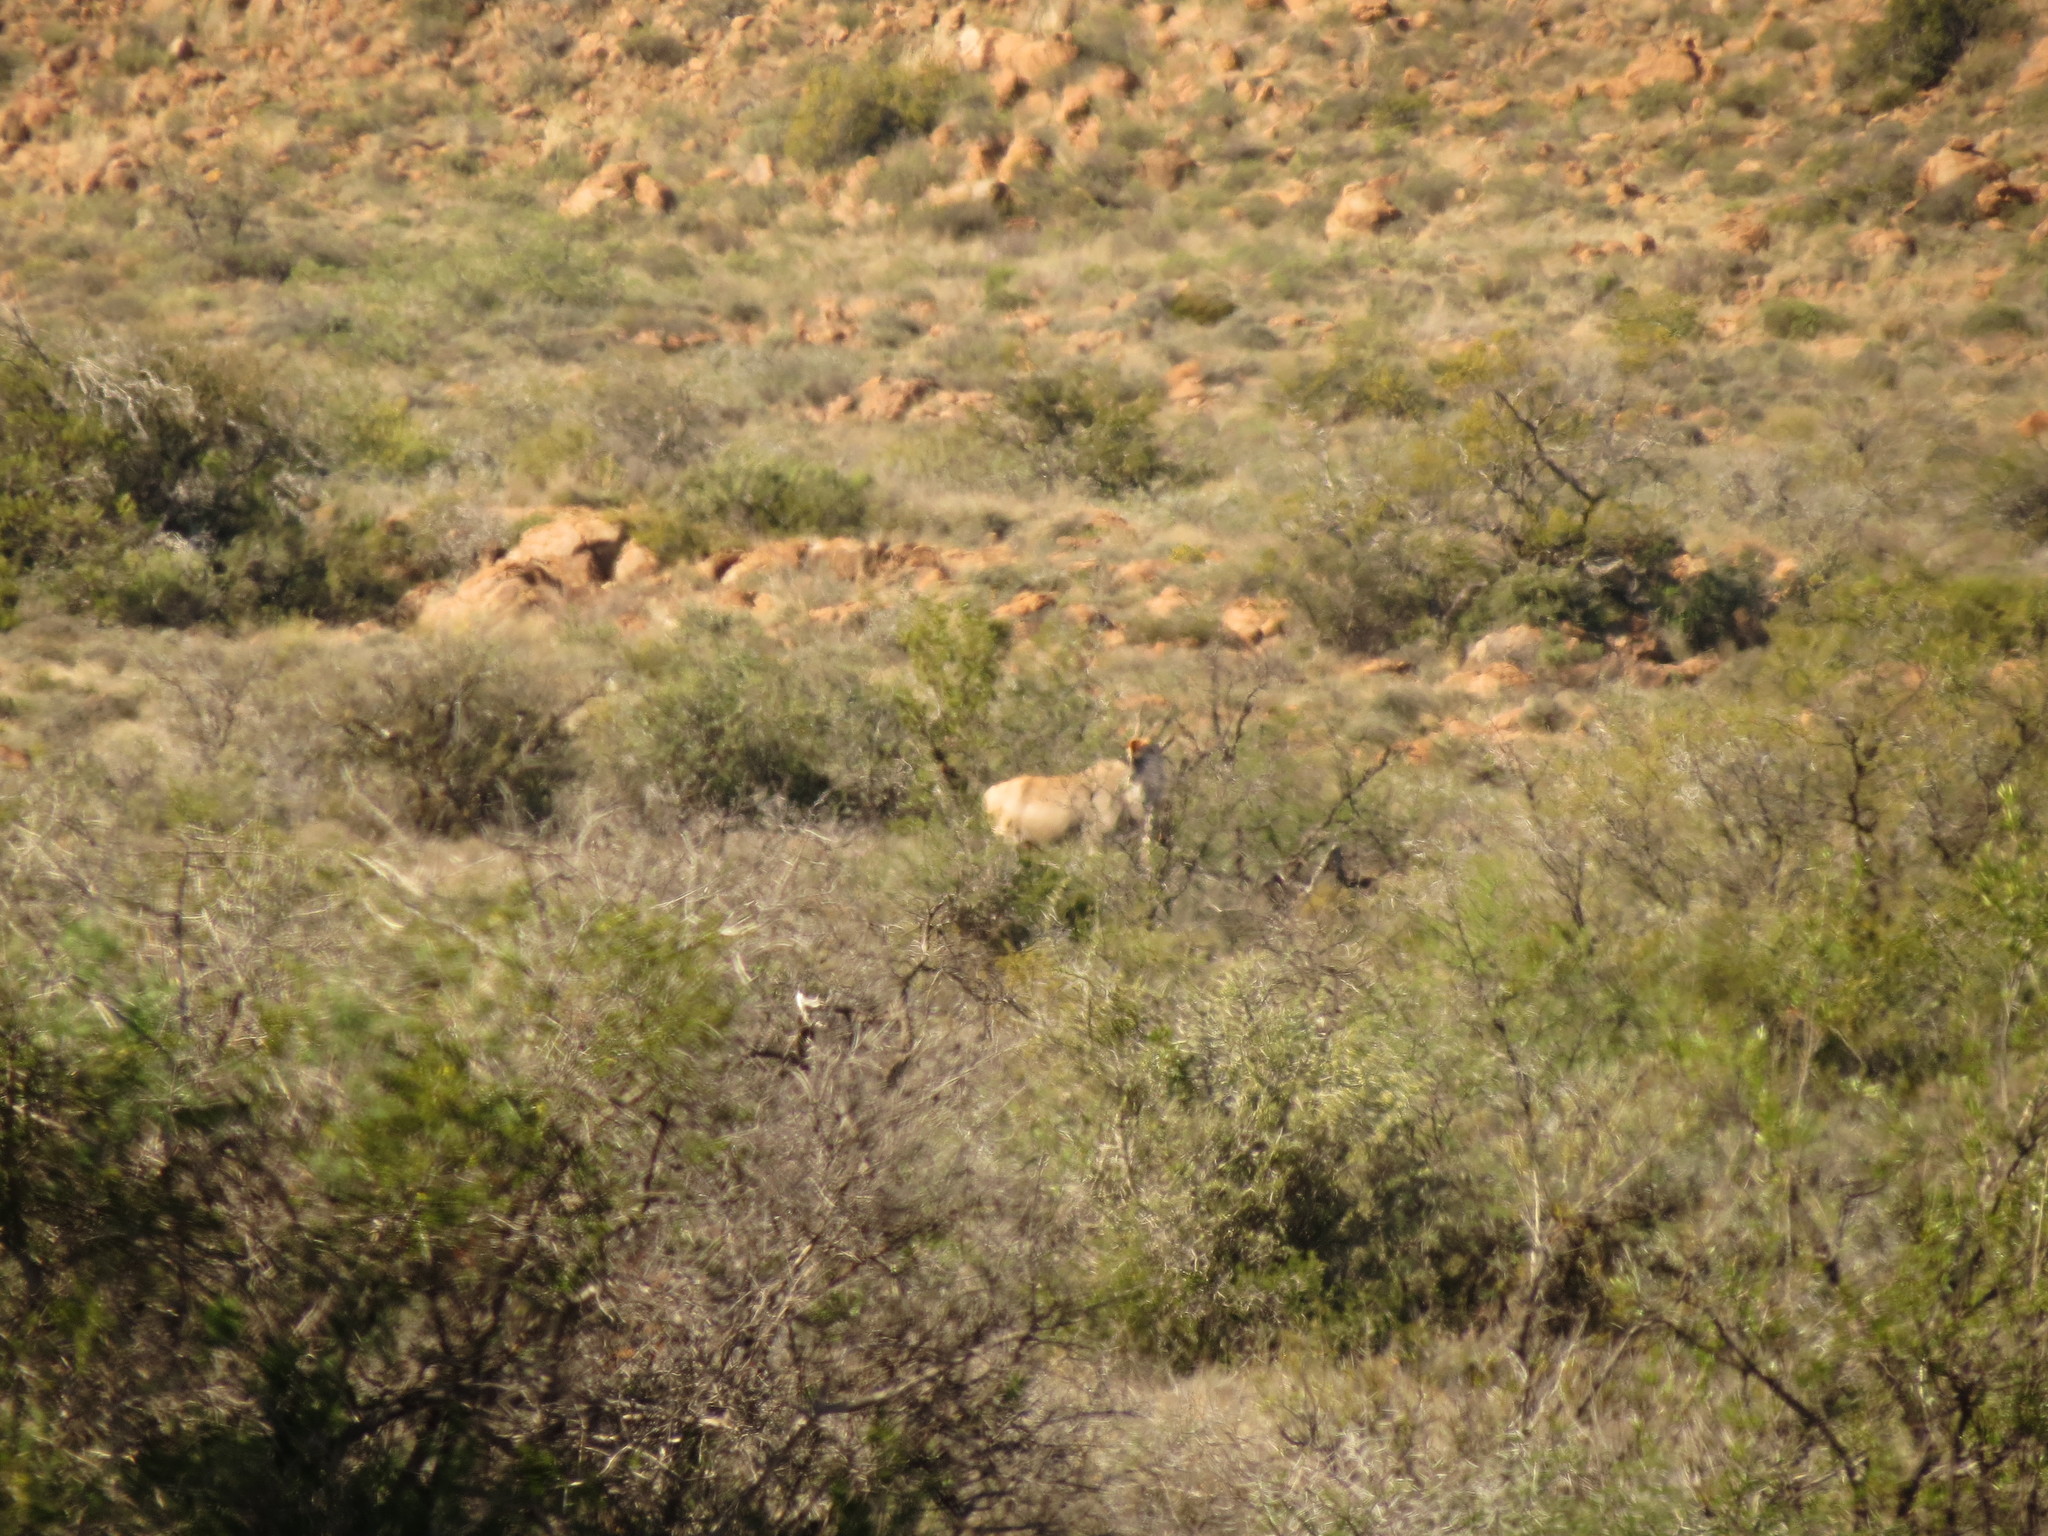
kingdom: Animalia
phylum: Chordata
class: Mammalia
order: Artiodactyla
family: Bovidae
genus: Taurotragus
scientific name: Taurotragus oryx
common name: Common eland
